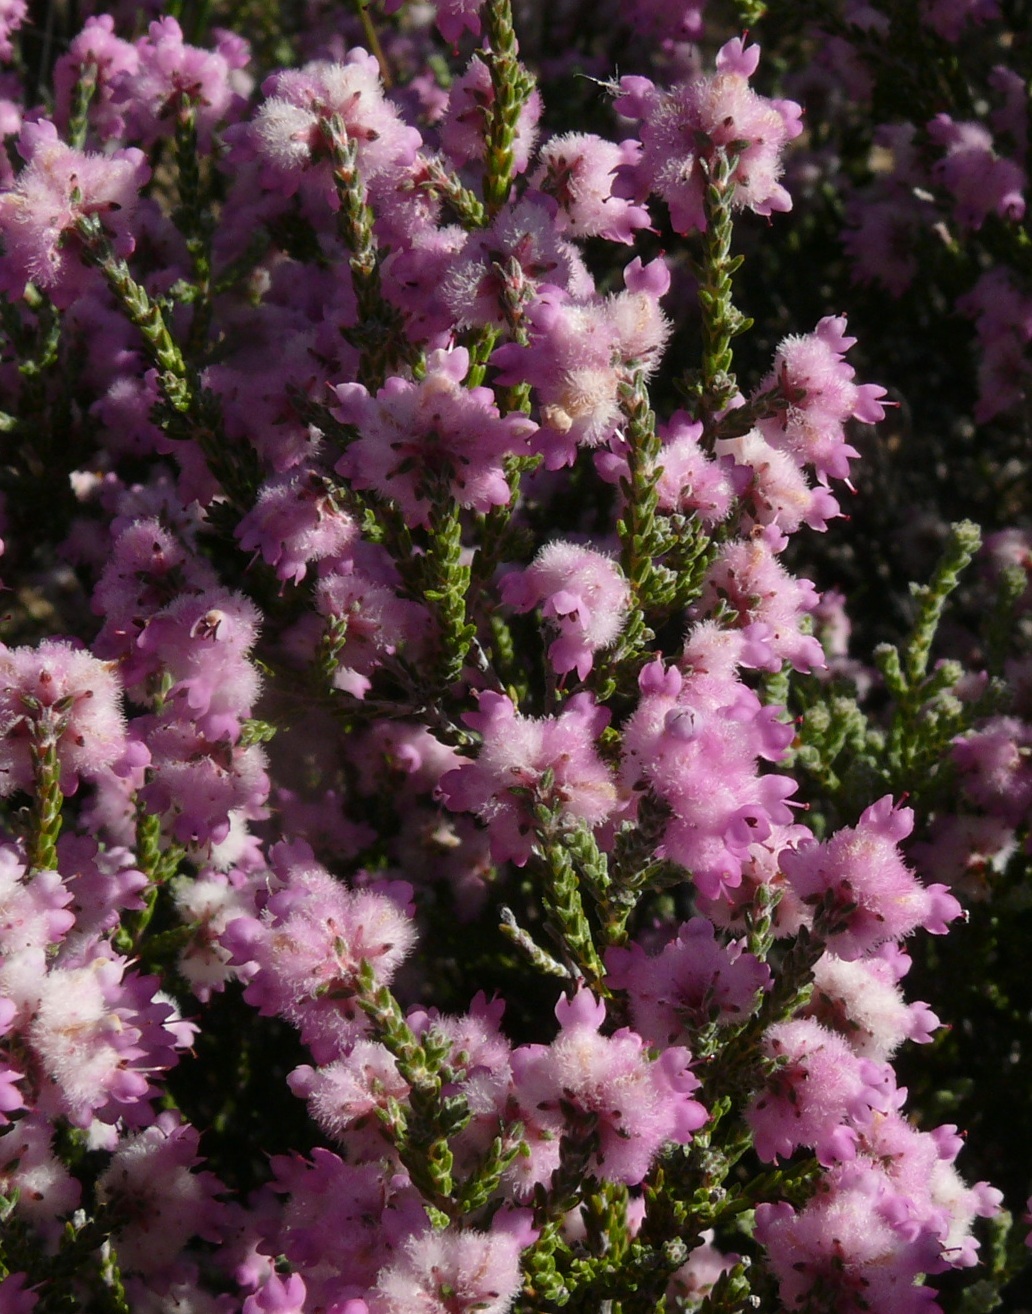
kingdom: Plantae
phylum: Tracheophyta
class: Magnoliopsida
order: Ericales
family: Ericaceae
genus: Erica
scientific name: Erica plumosa
